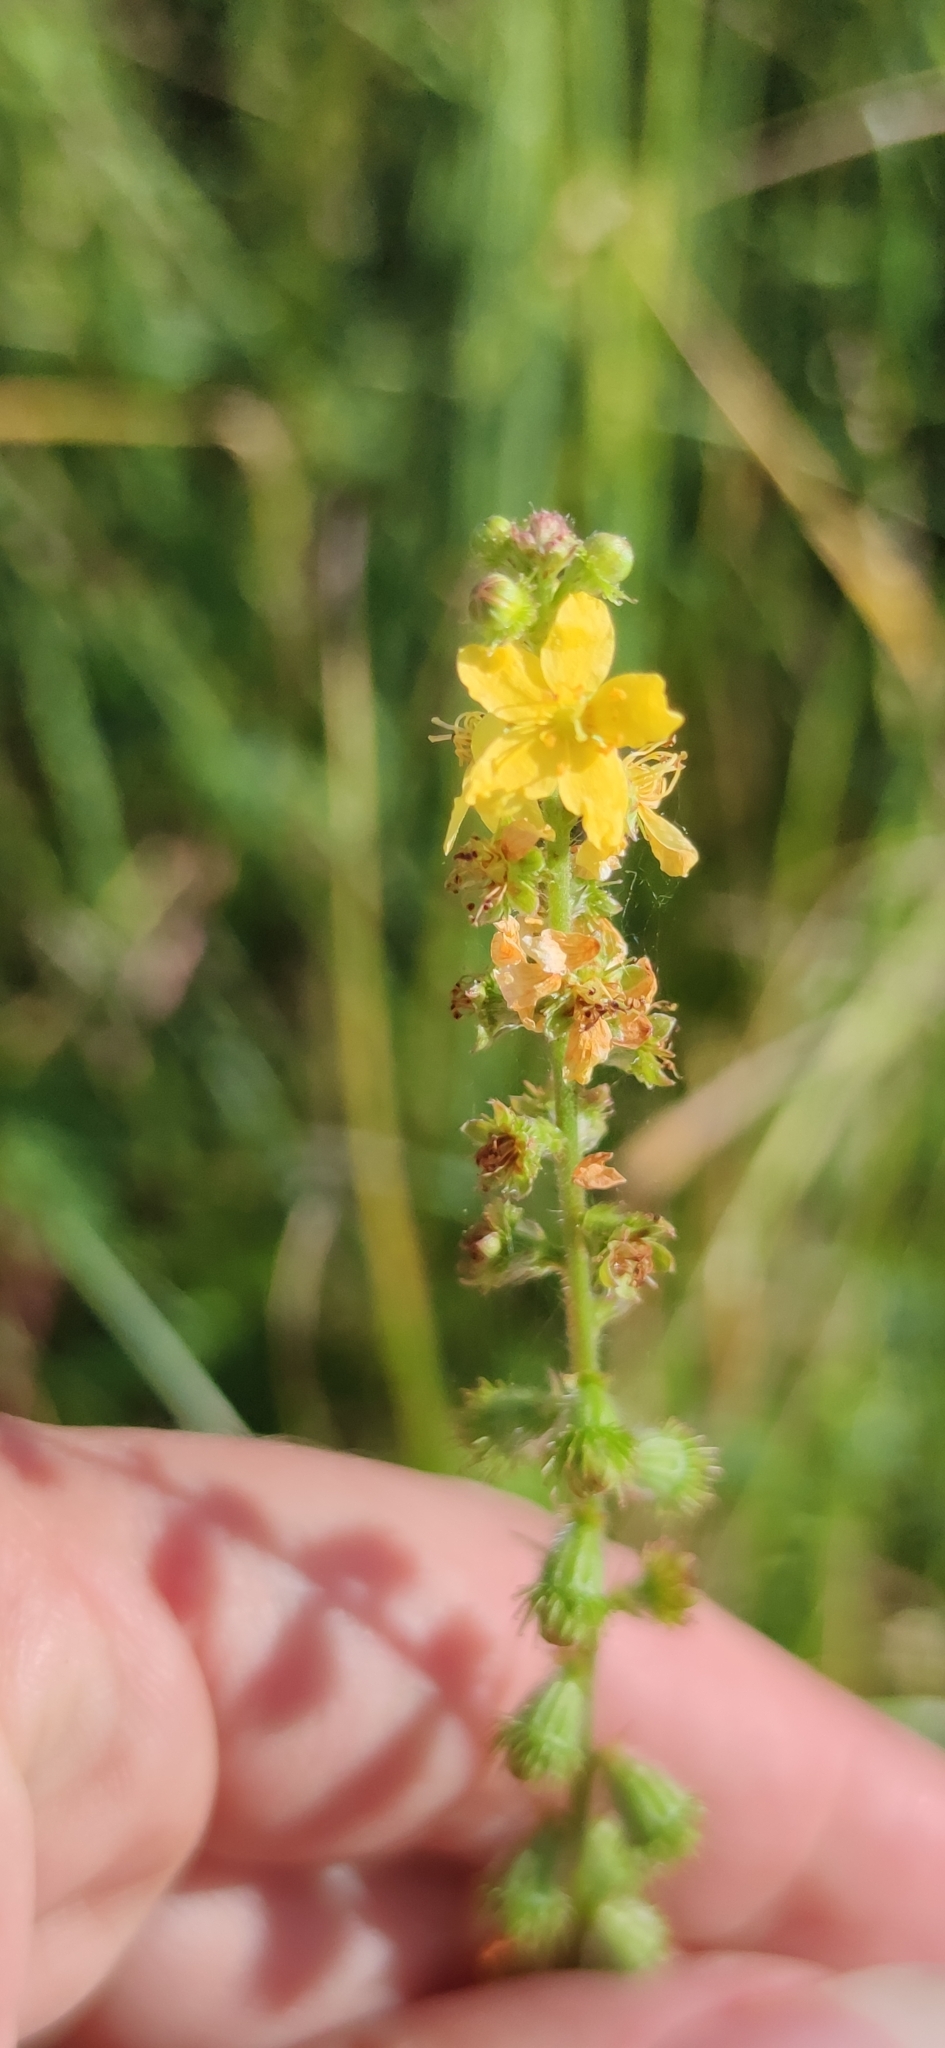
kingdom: Plantae
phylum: Tracheophyta
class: Magnoliopsida
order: Rosales
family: Rosaceae
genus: Agrimonia
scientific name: Agrimonia eupatoria
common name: Agrimony
